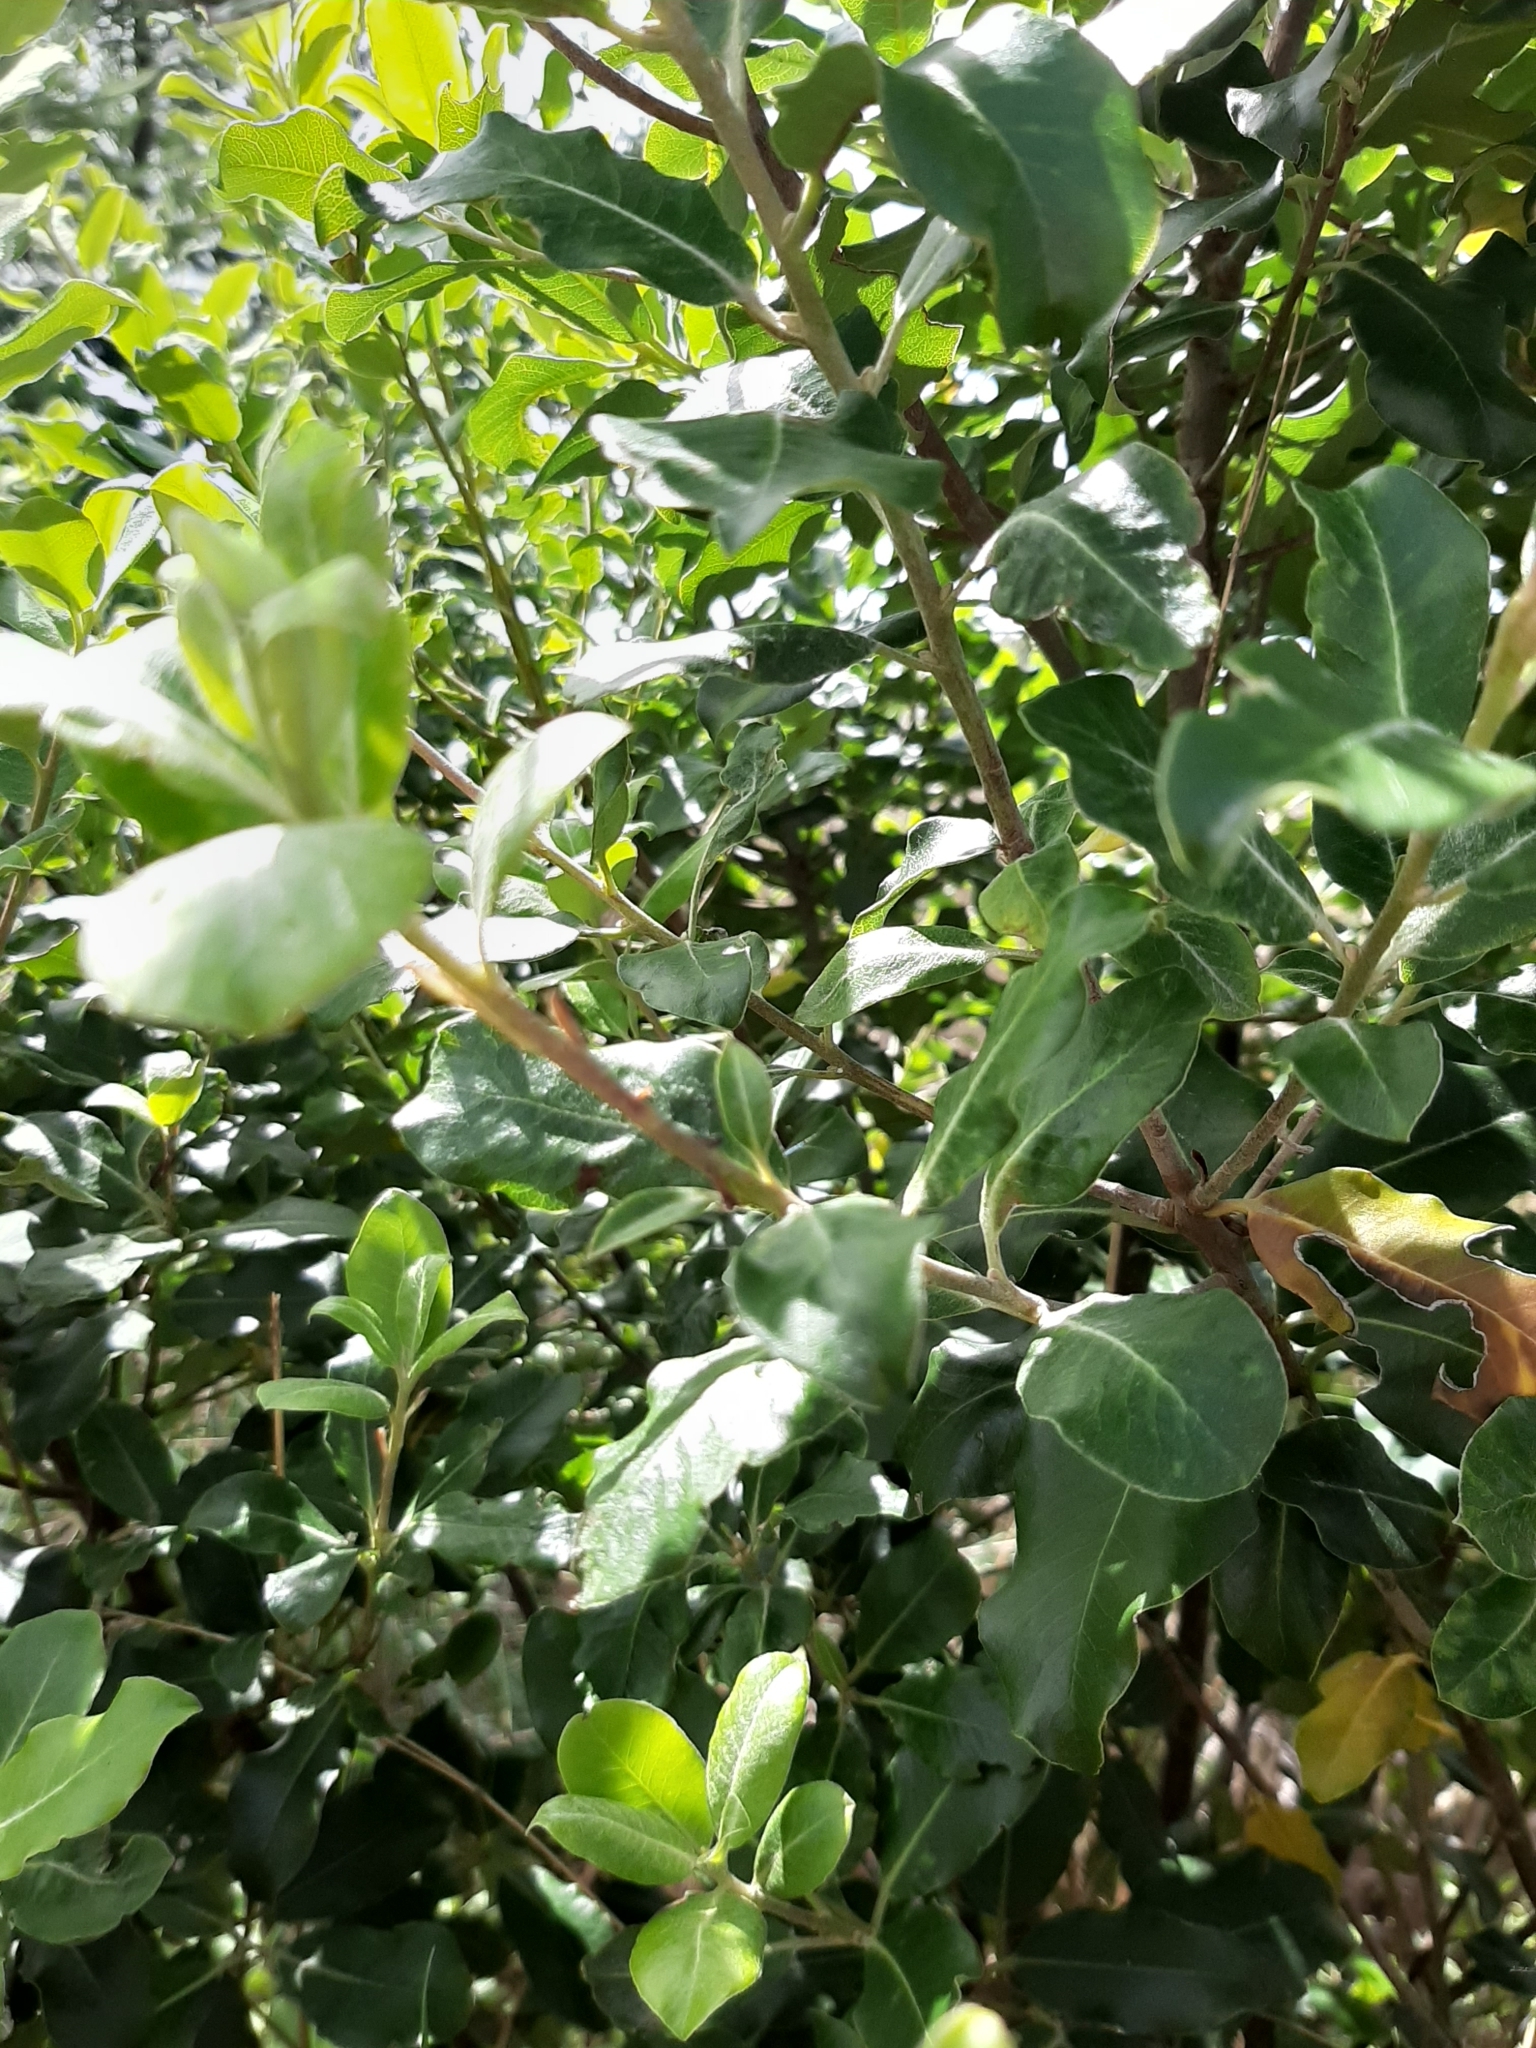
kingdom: Plantae
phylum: Tracheophyta
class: Magnoliopsida
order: Apiales
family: Pittosporaceae
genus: Pittosporum
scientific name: Pittosporum tenuifolium
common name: Kohuhu
